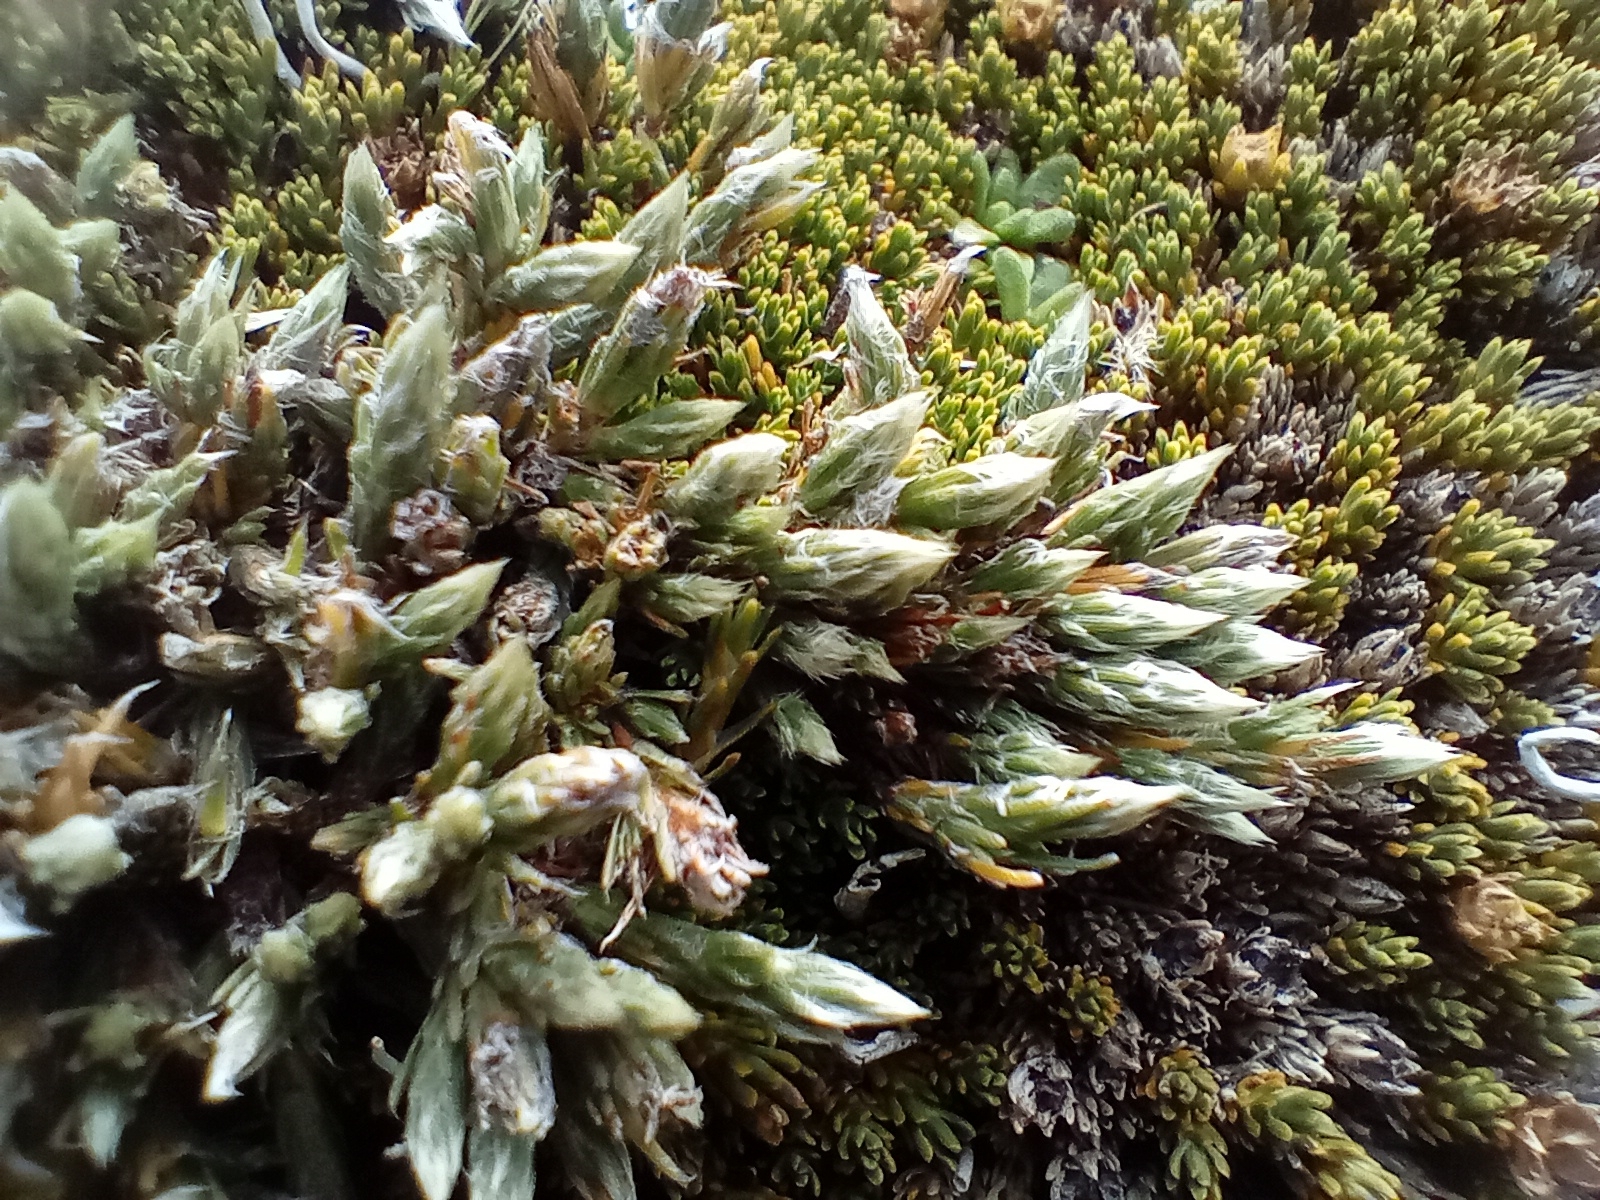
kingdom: Plantae
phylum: Tracheophyta
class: Magnoliopsida
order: Malvales
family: Thymelaeaceae
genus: Kelleria
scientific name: Kelleria villosa
